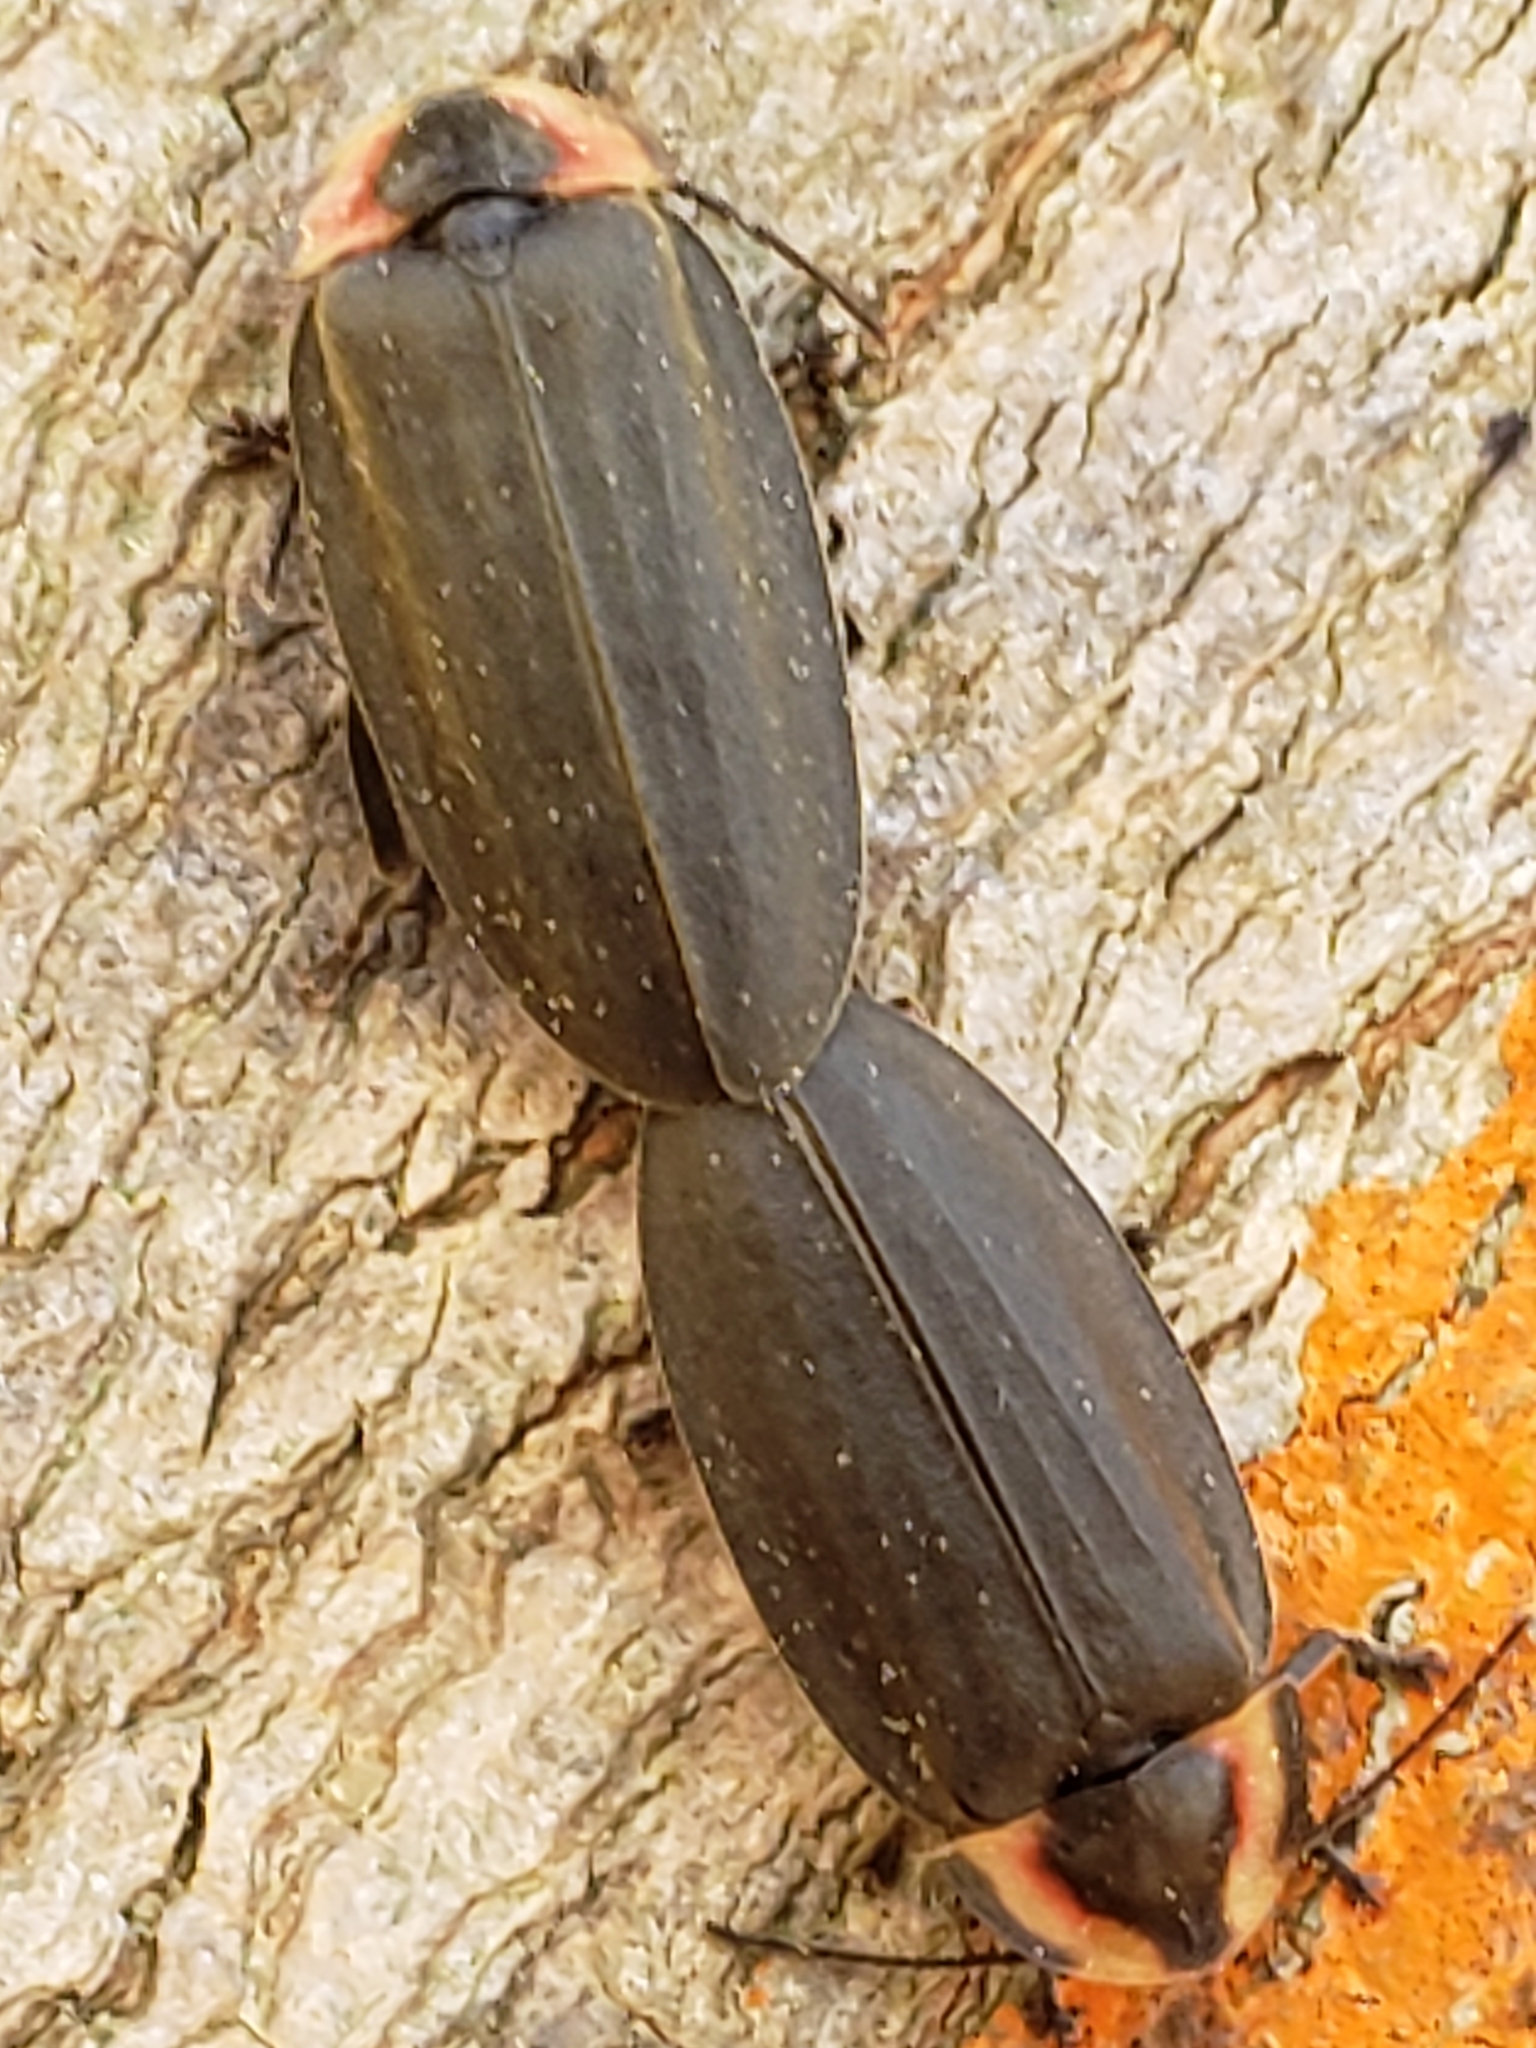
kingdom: Animalia
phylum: Arthropoda
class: Insecta
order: Coleoptera
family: Lampyridae
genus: Photinus
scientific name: Photinus corrusca
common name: Winter firefly
